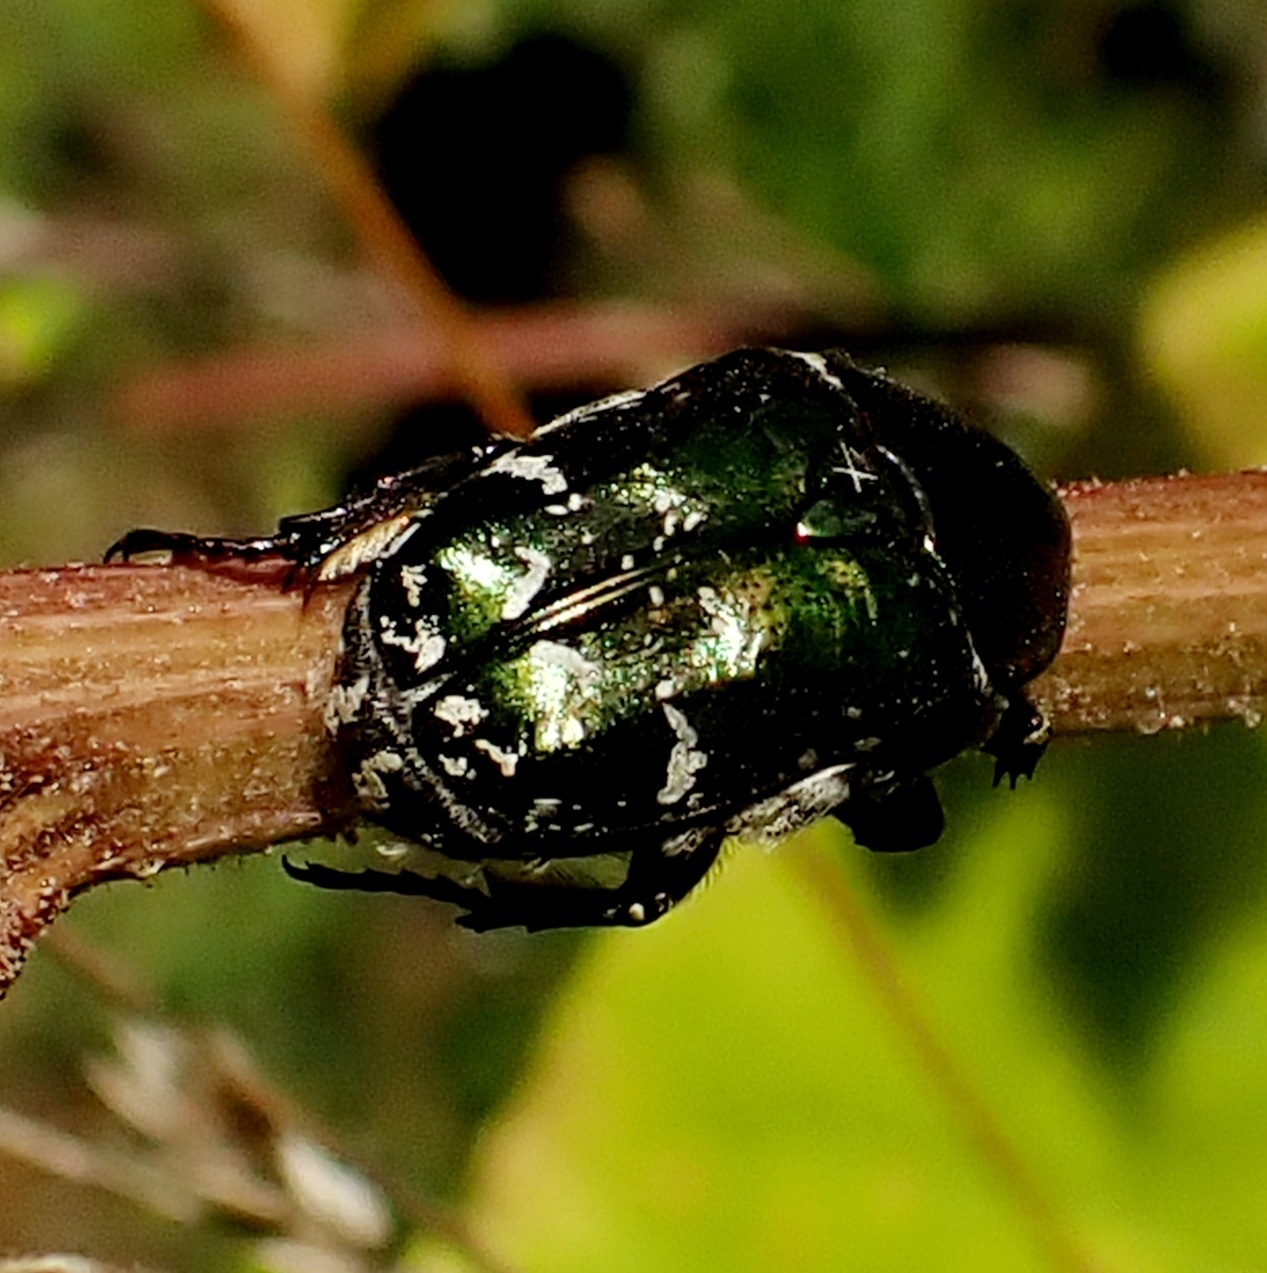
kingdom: Animalia
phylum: Arthropoda
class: Insecta
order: Coleoptera
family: Scarabaeidae
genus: Protaetia
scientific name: Protaetia cuprea
